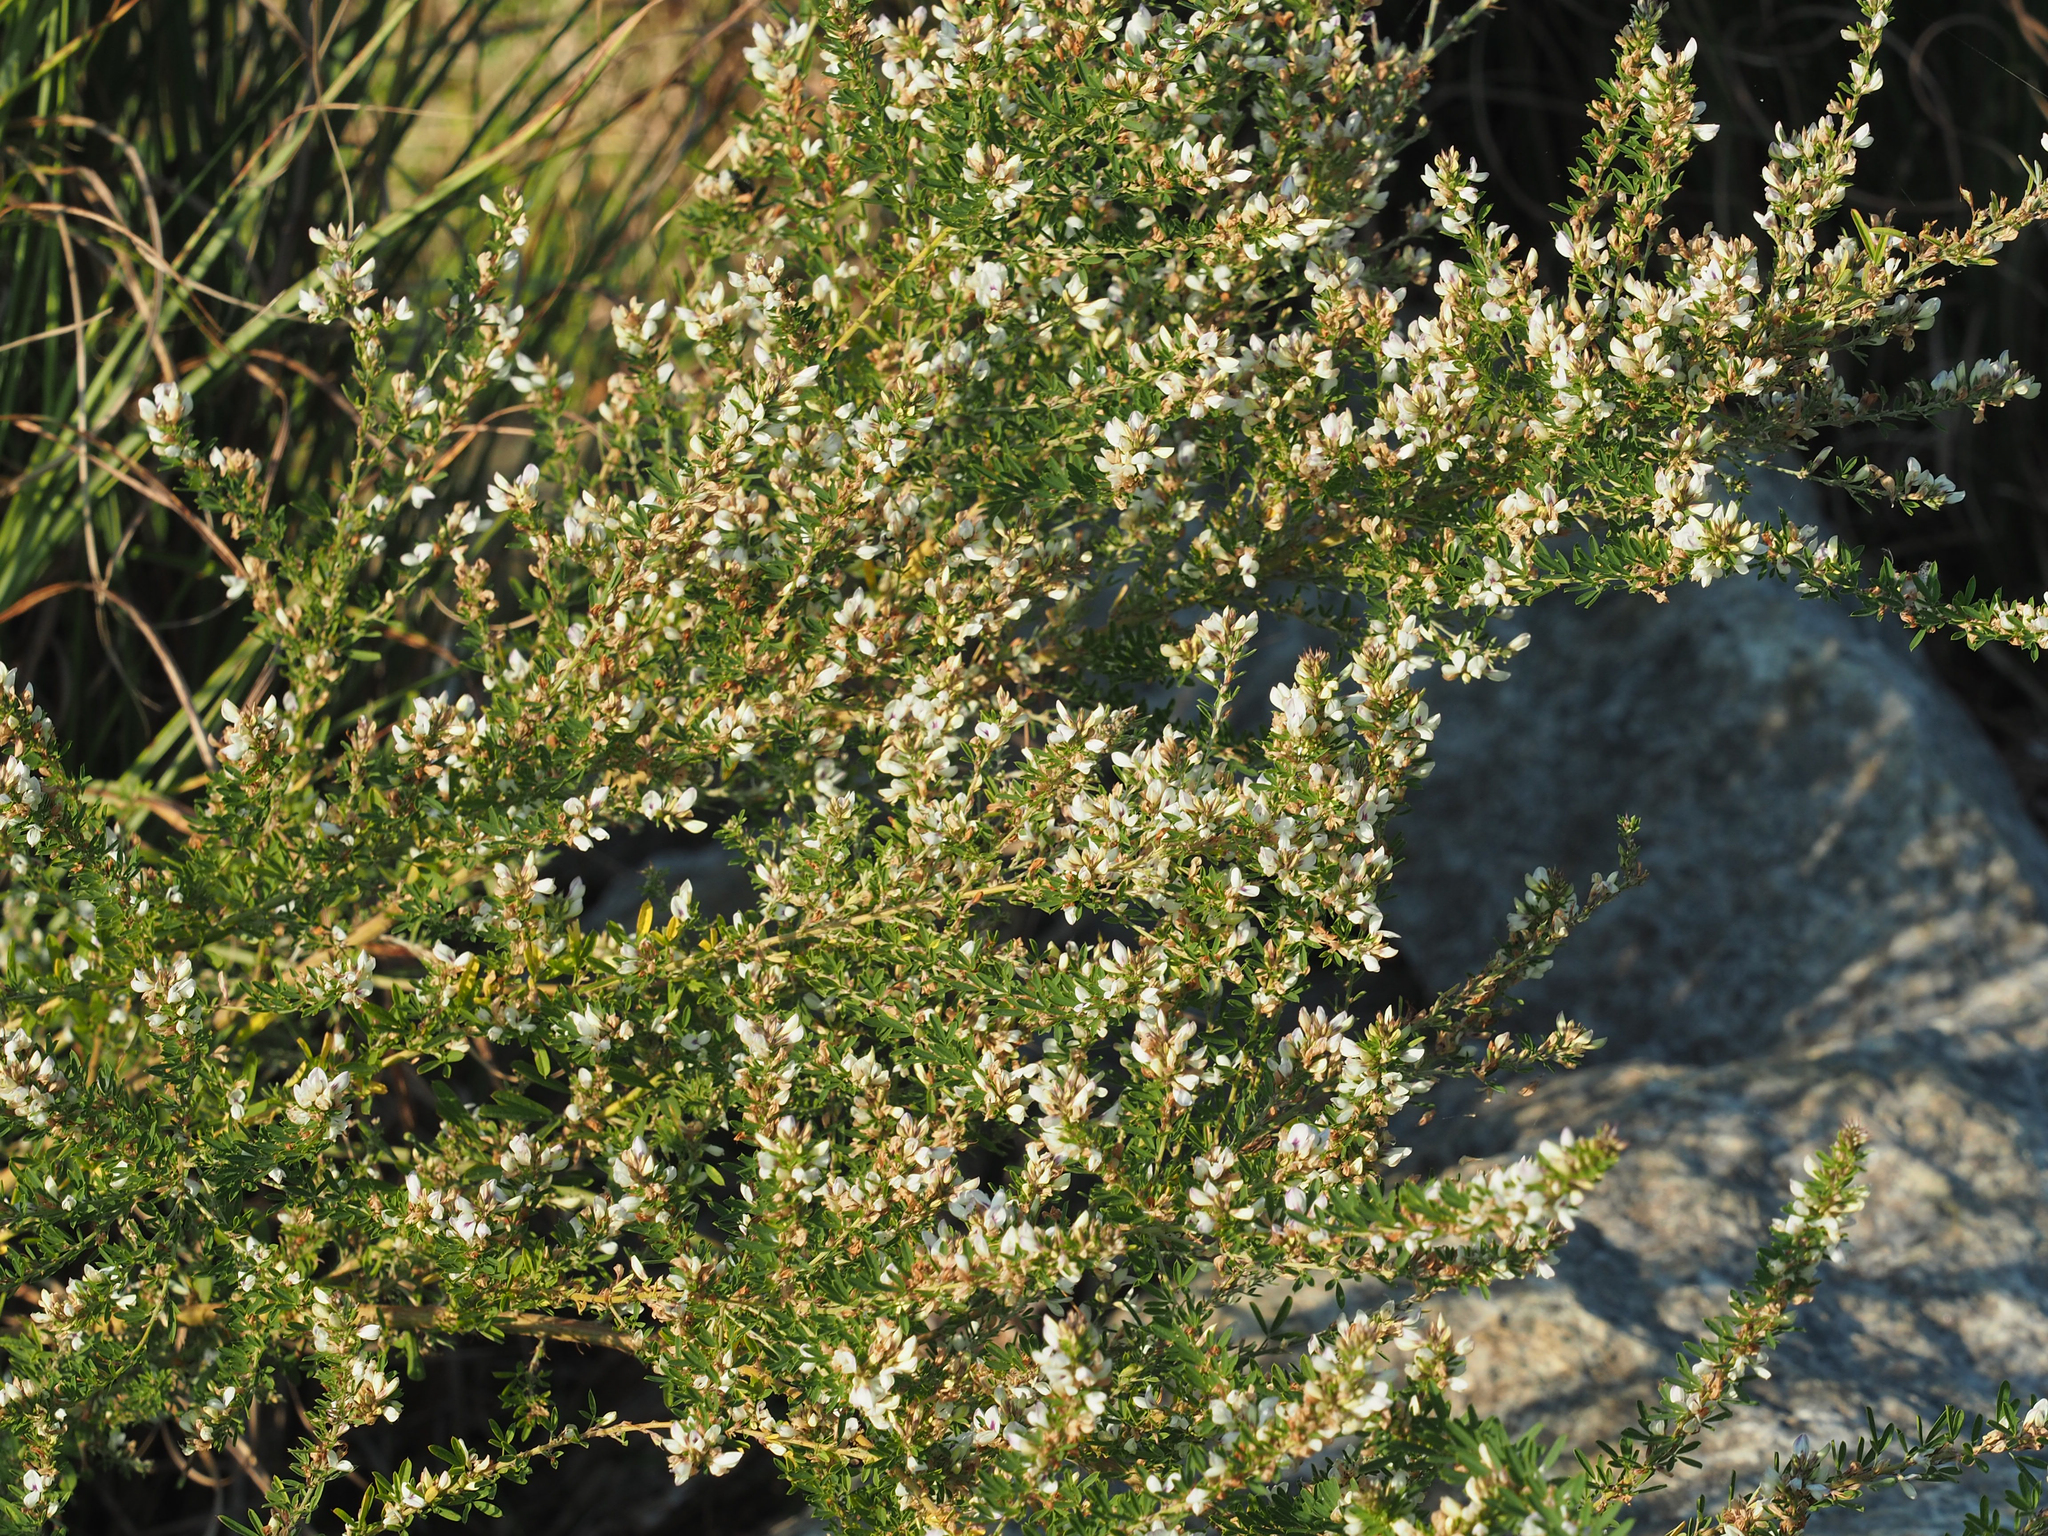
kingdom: Plantae
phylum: Tracheophyta
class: Magnoliopsida
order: Fabales
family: Fabaceae
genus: Lespedeza
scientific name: Lespedeza cuneata
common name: Chinese bush-clover
